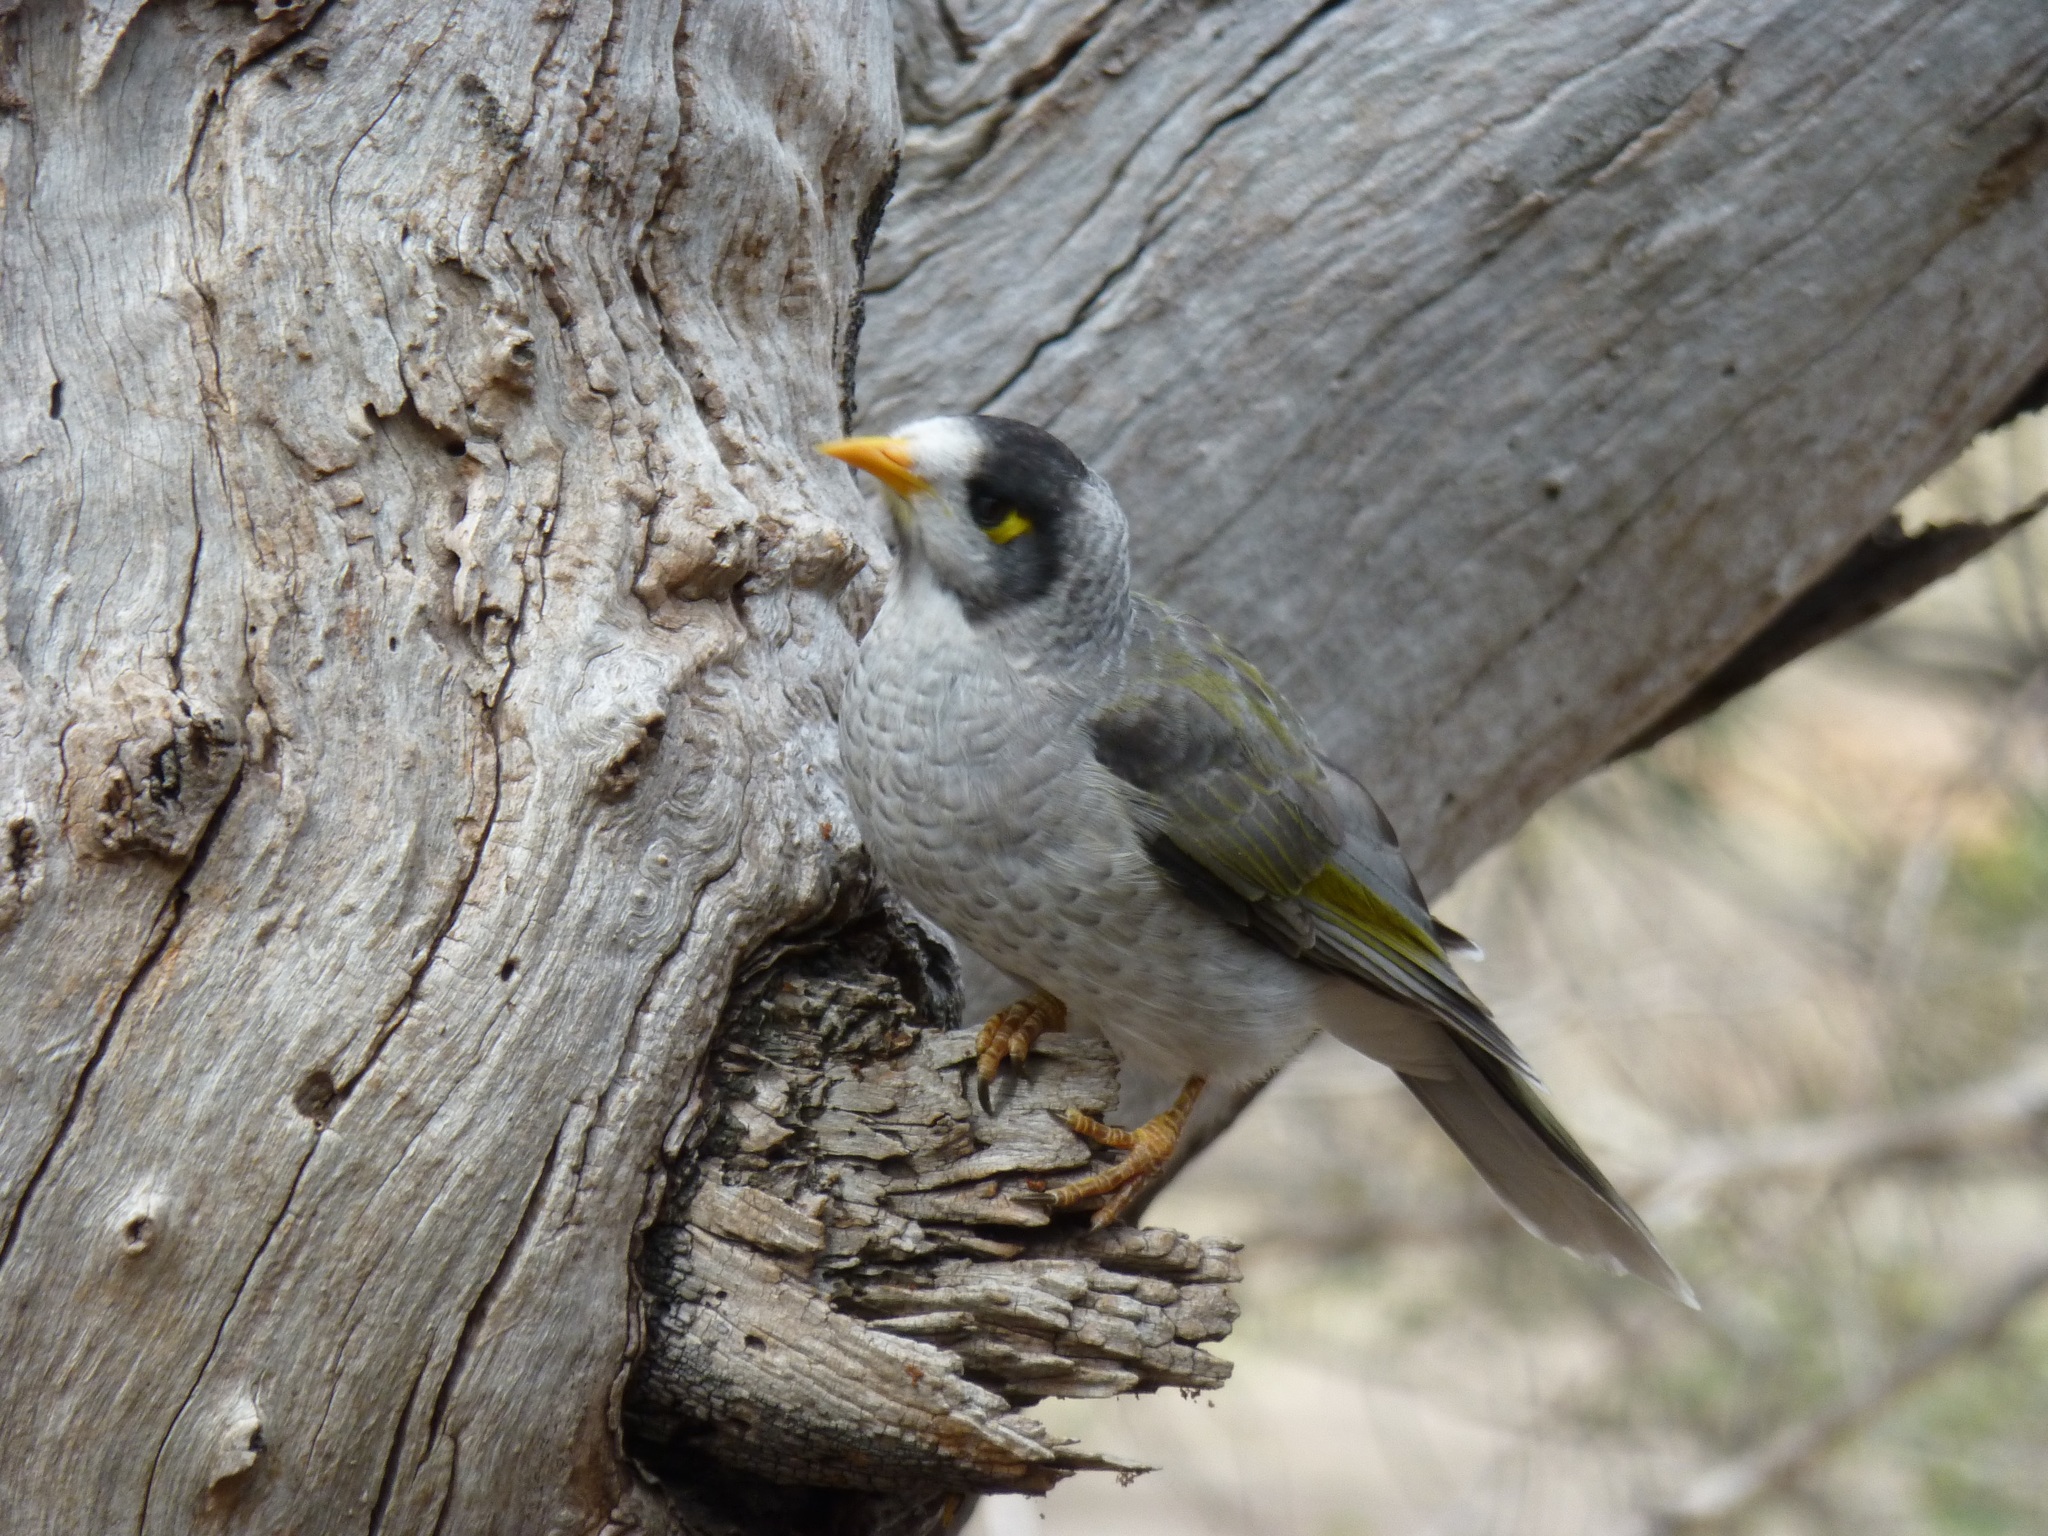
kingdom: Animalia
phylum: Chordata
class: Aves
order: Passeriformes
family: Meliphagidae
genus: Manorina
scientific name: Manorina melanocephala
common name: Noisy miner
